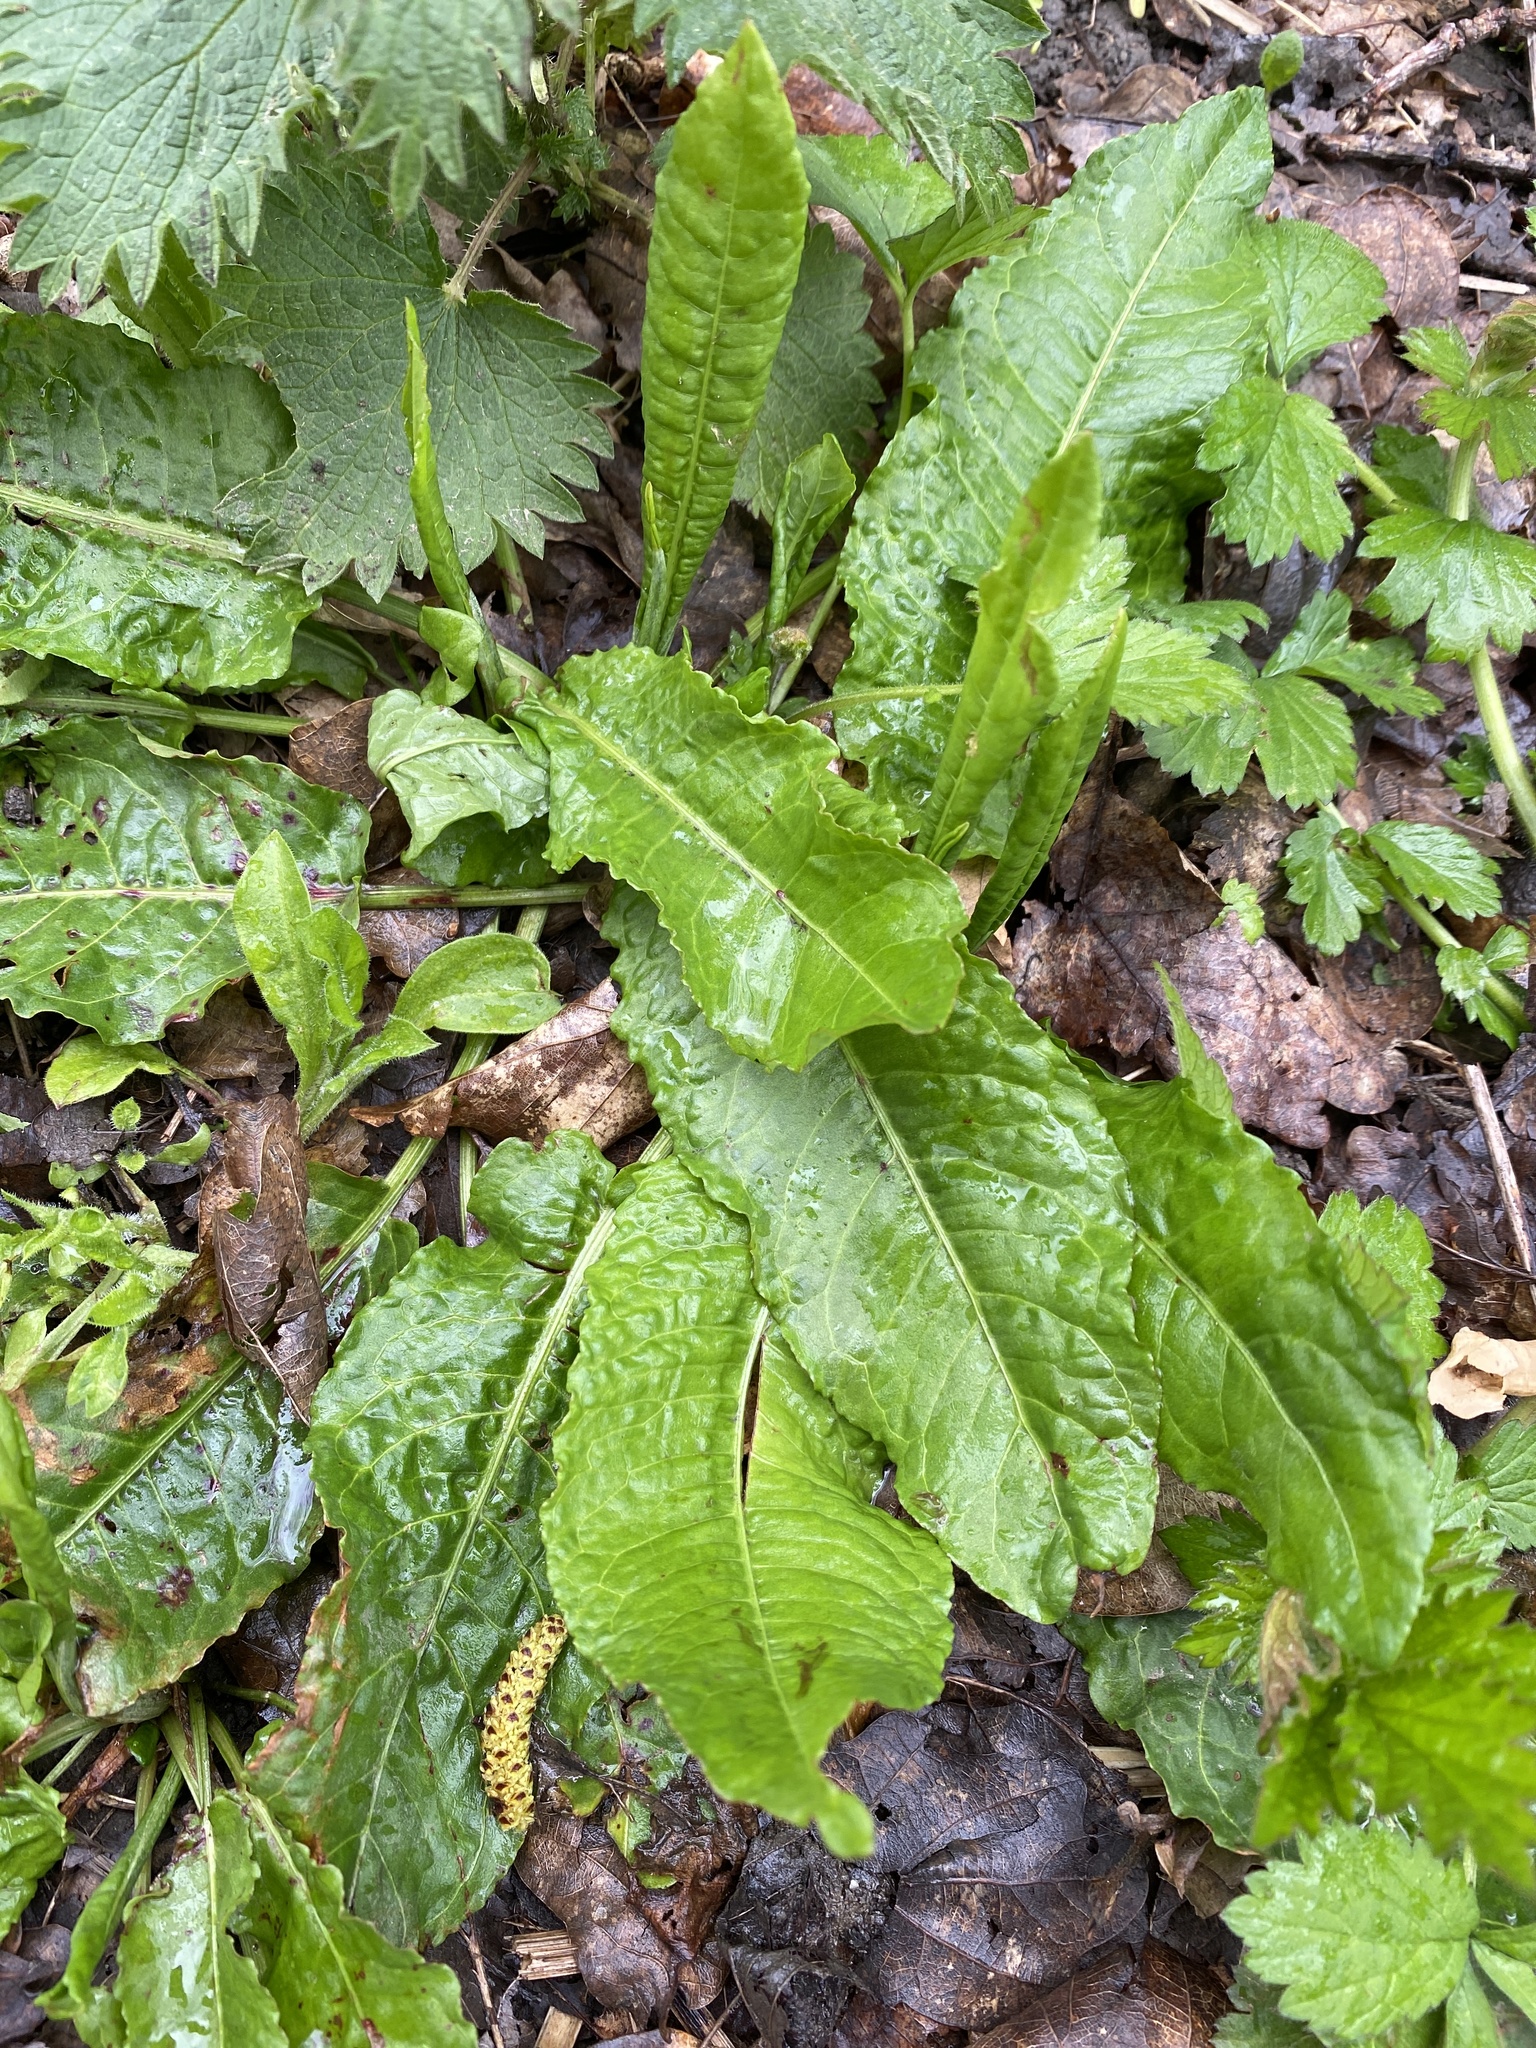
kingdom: Plantae
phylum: Tracheophyta
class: Magnoliopsida
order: Caryophyllales
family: Polygonaceae
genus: Rumex
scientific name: Rumex obtusifolius
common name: Bitter dock
